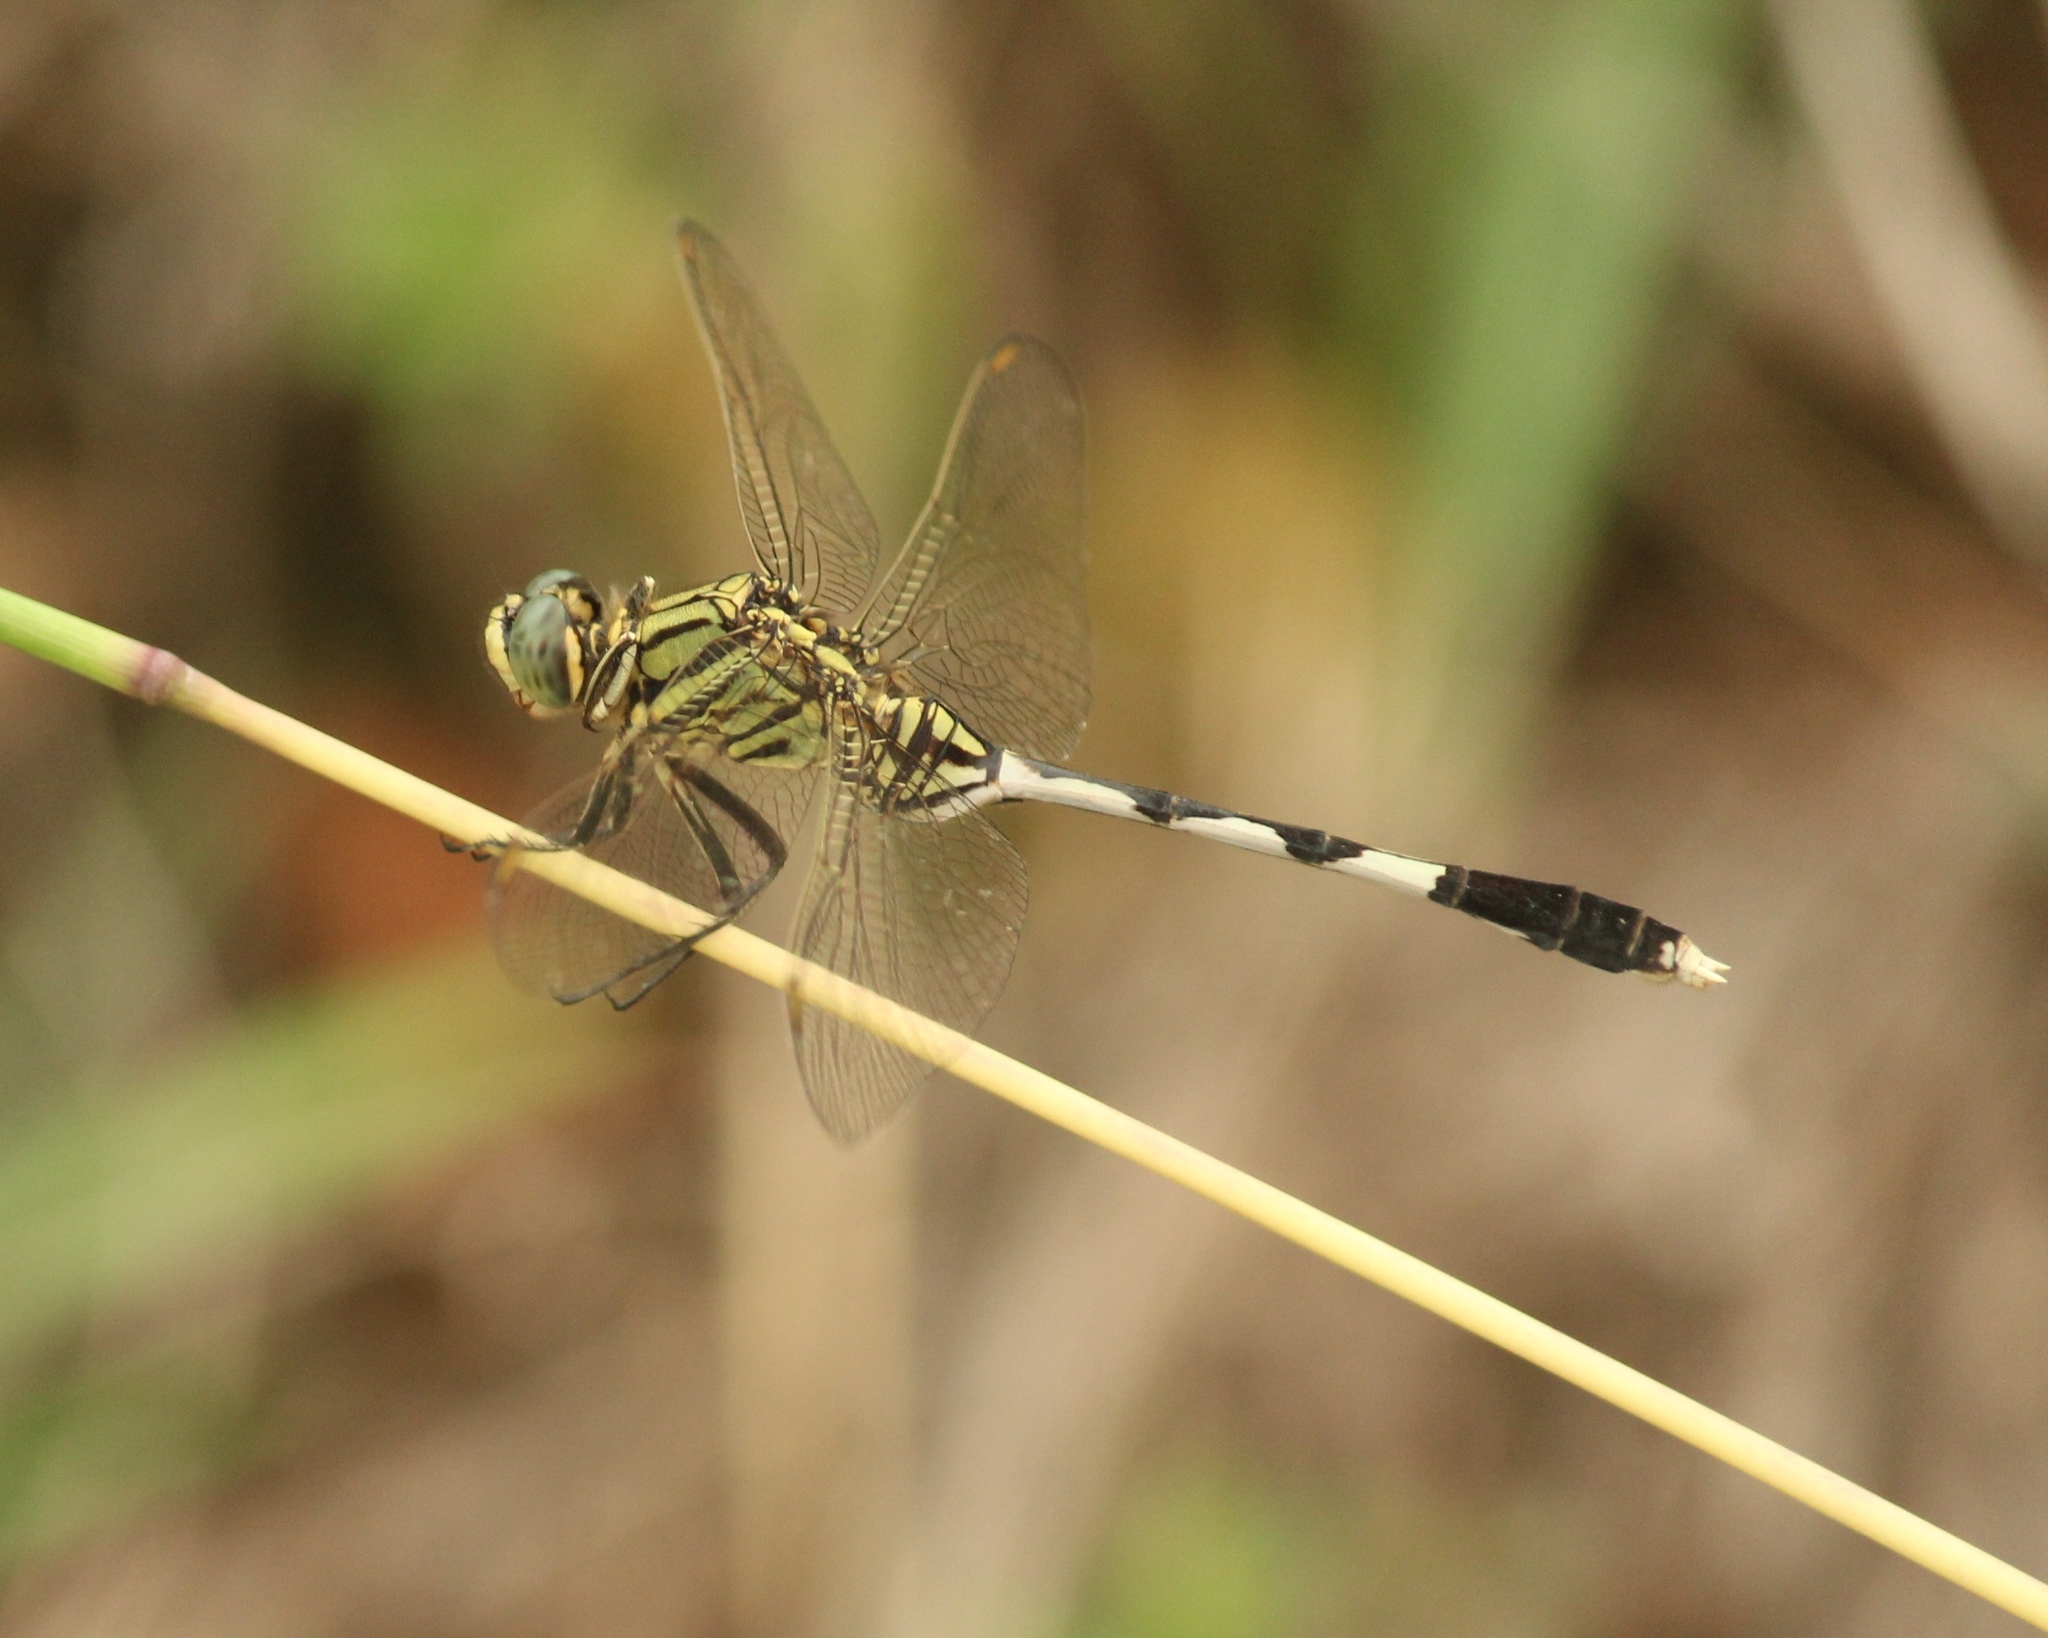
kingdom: Animalia
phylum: Arthropoda
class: Insecta
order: Odonata
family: Libellulidae
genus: Orthetrum
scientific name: Orthetrum sabina
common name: Slender skimmer
